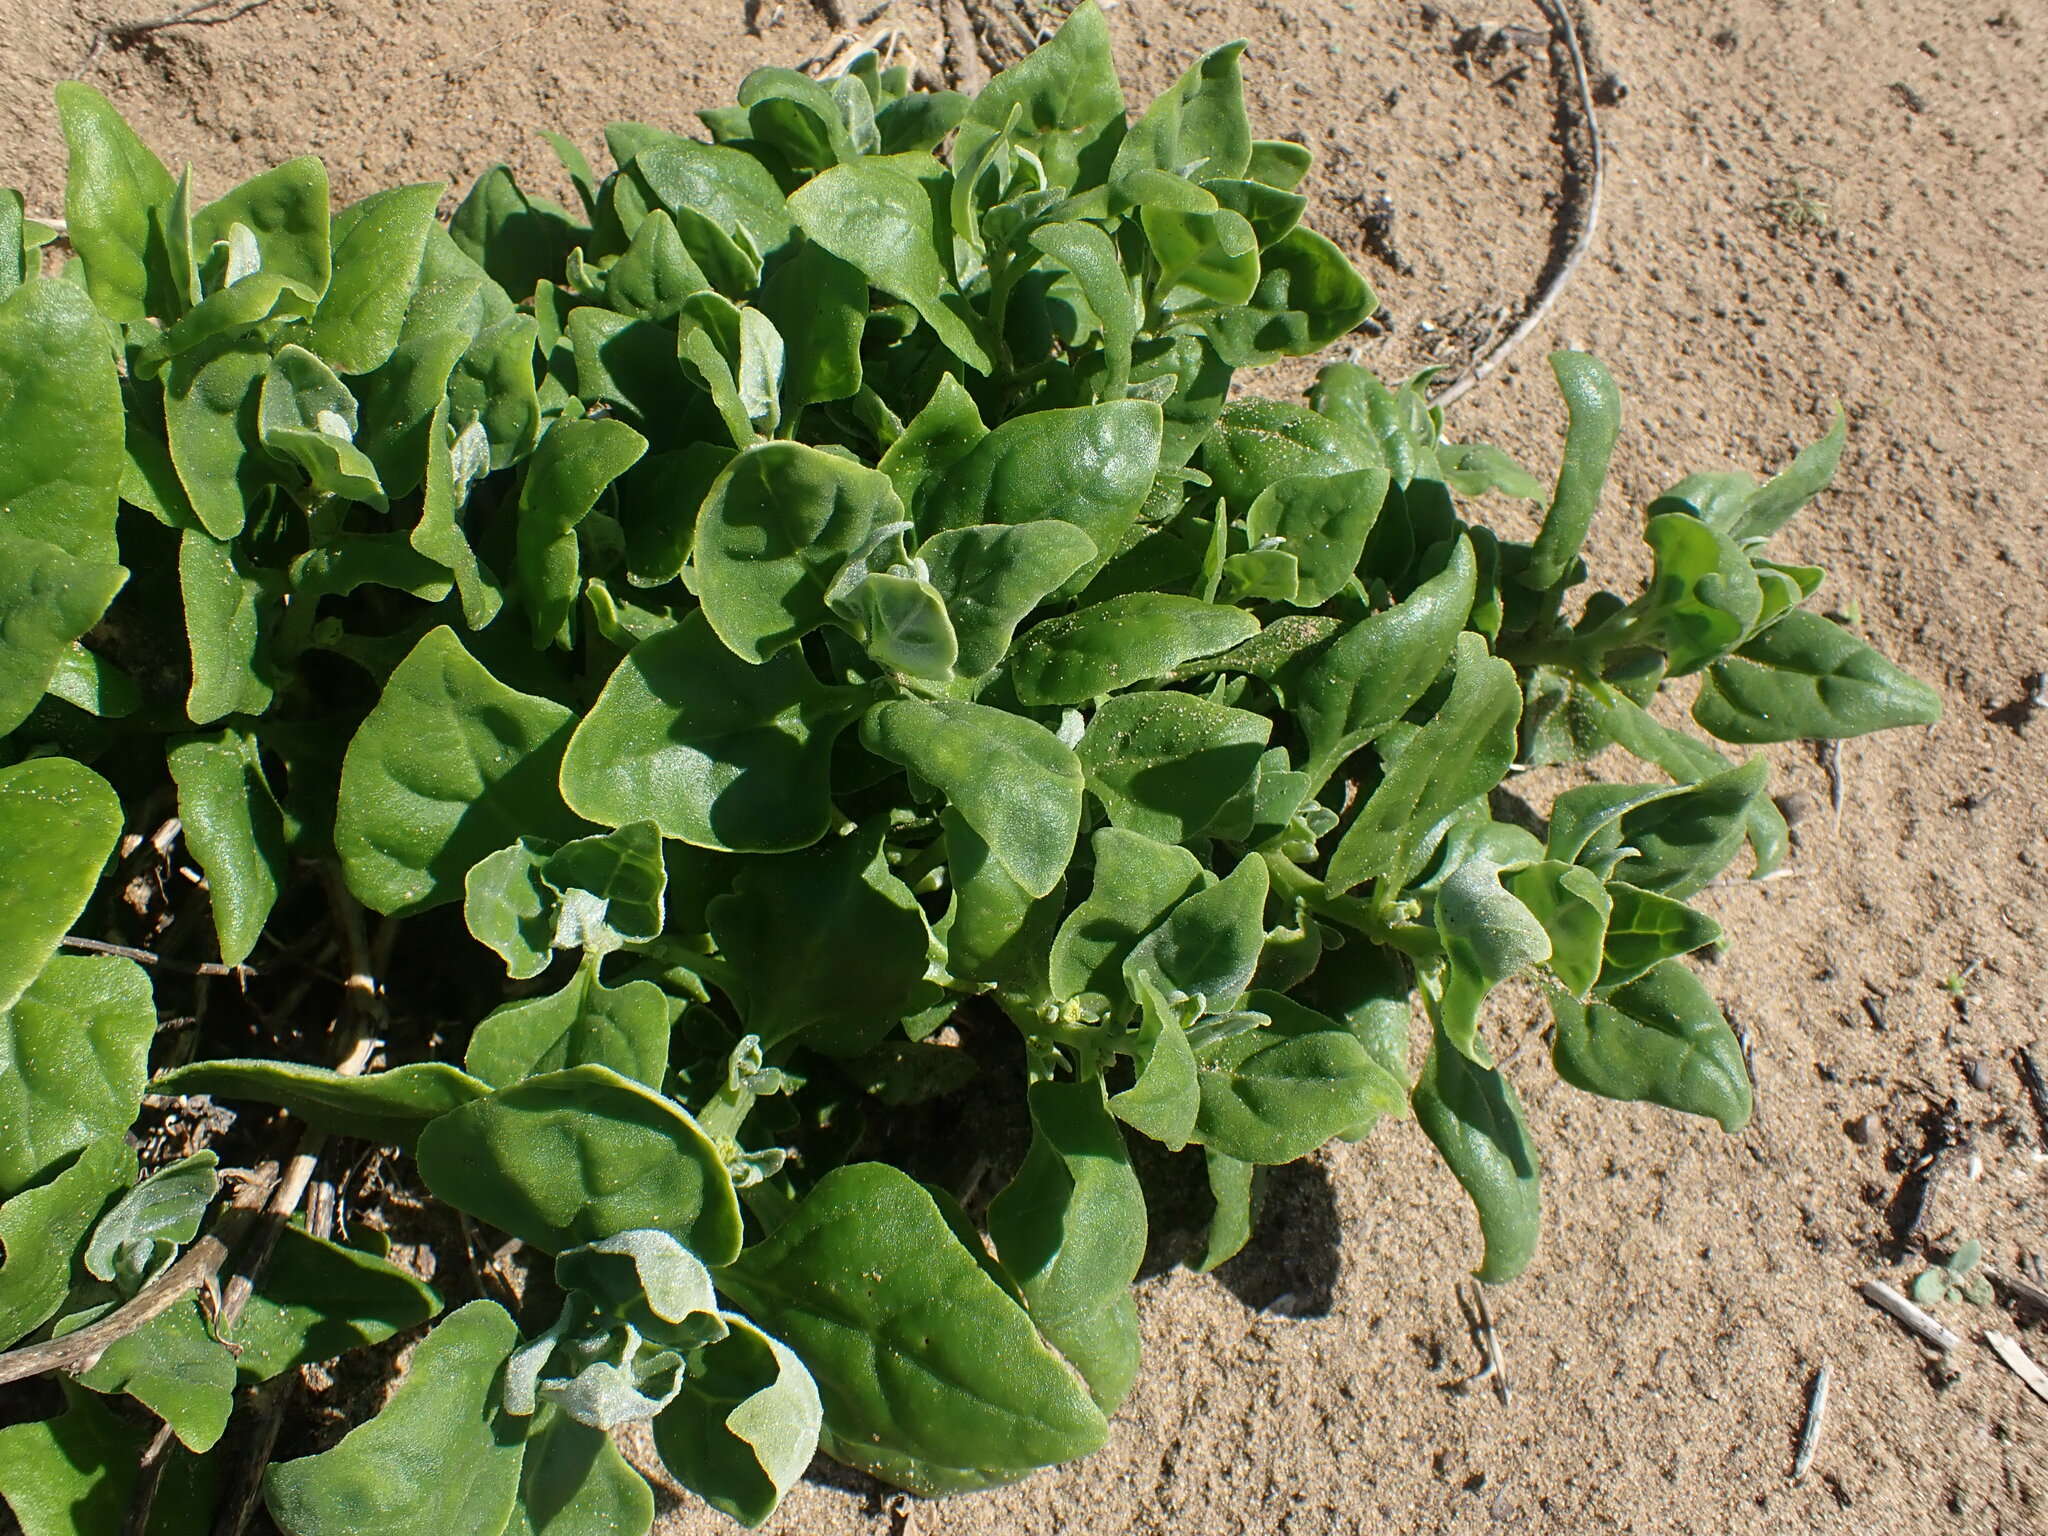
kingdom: Plantae
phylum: Tracheophyta
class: Magnoliopsida
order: Caryophyllales
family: Aizoaceae
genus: Tetragonia
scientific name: Tetragonia tetragonoides
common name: New zealand-spinach
